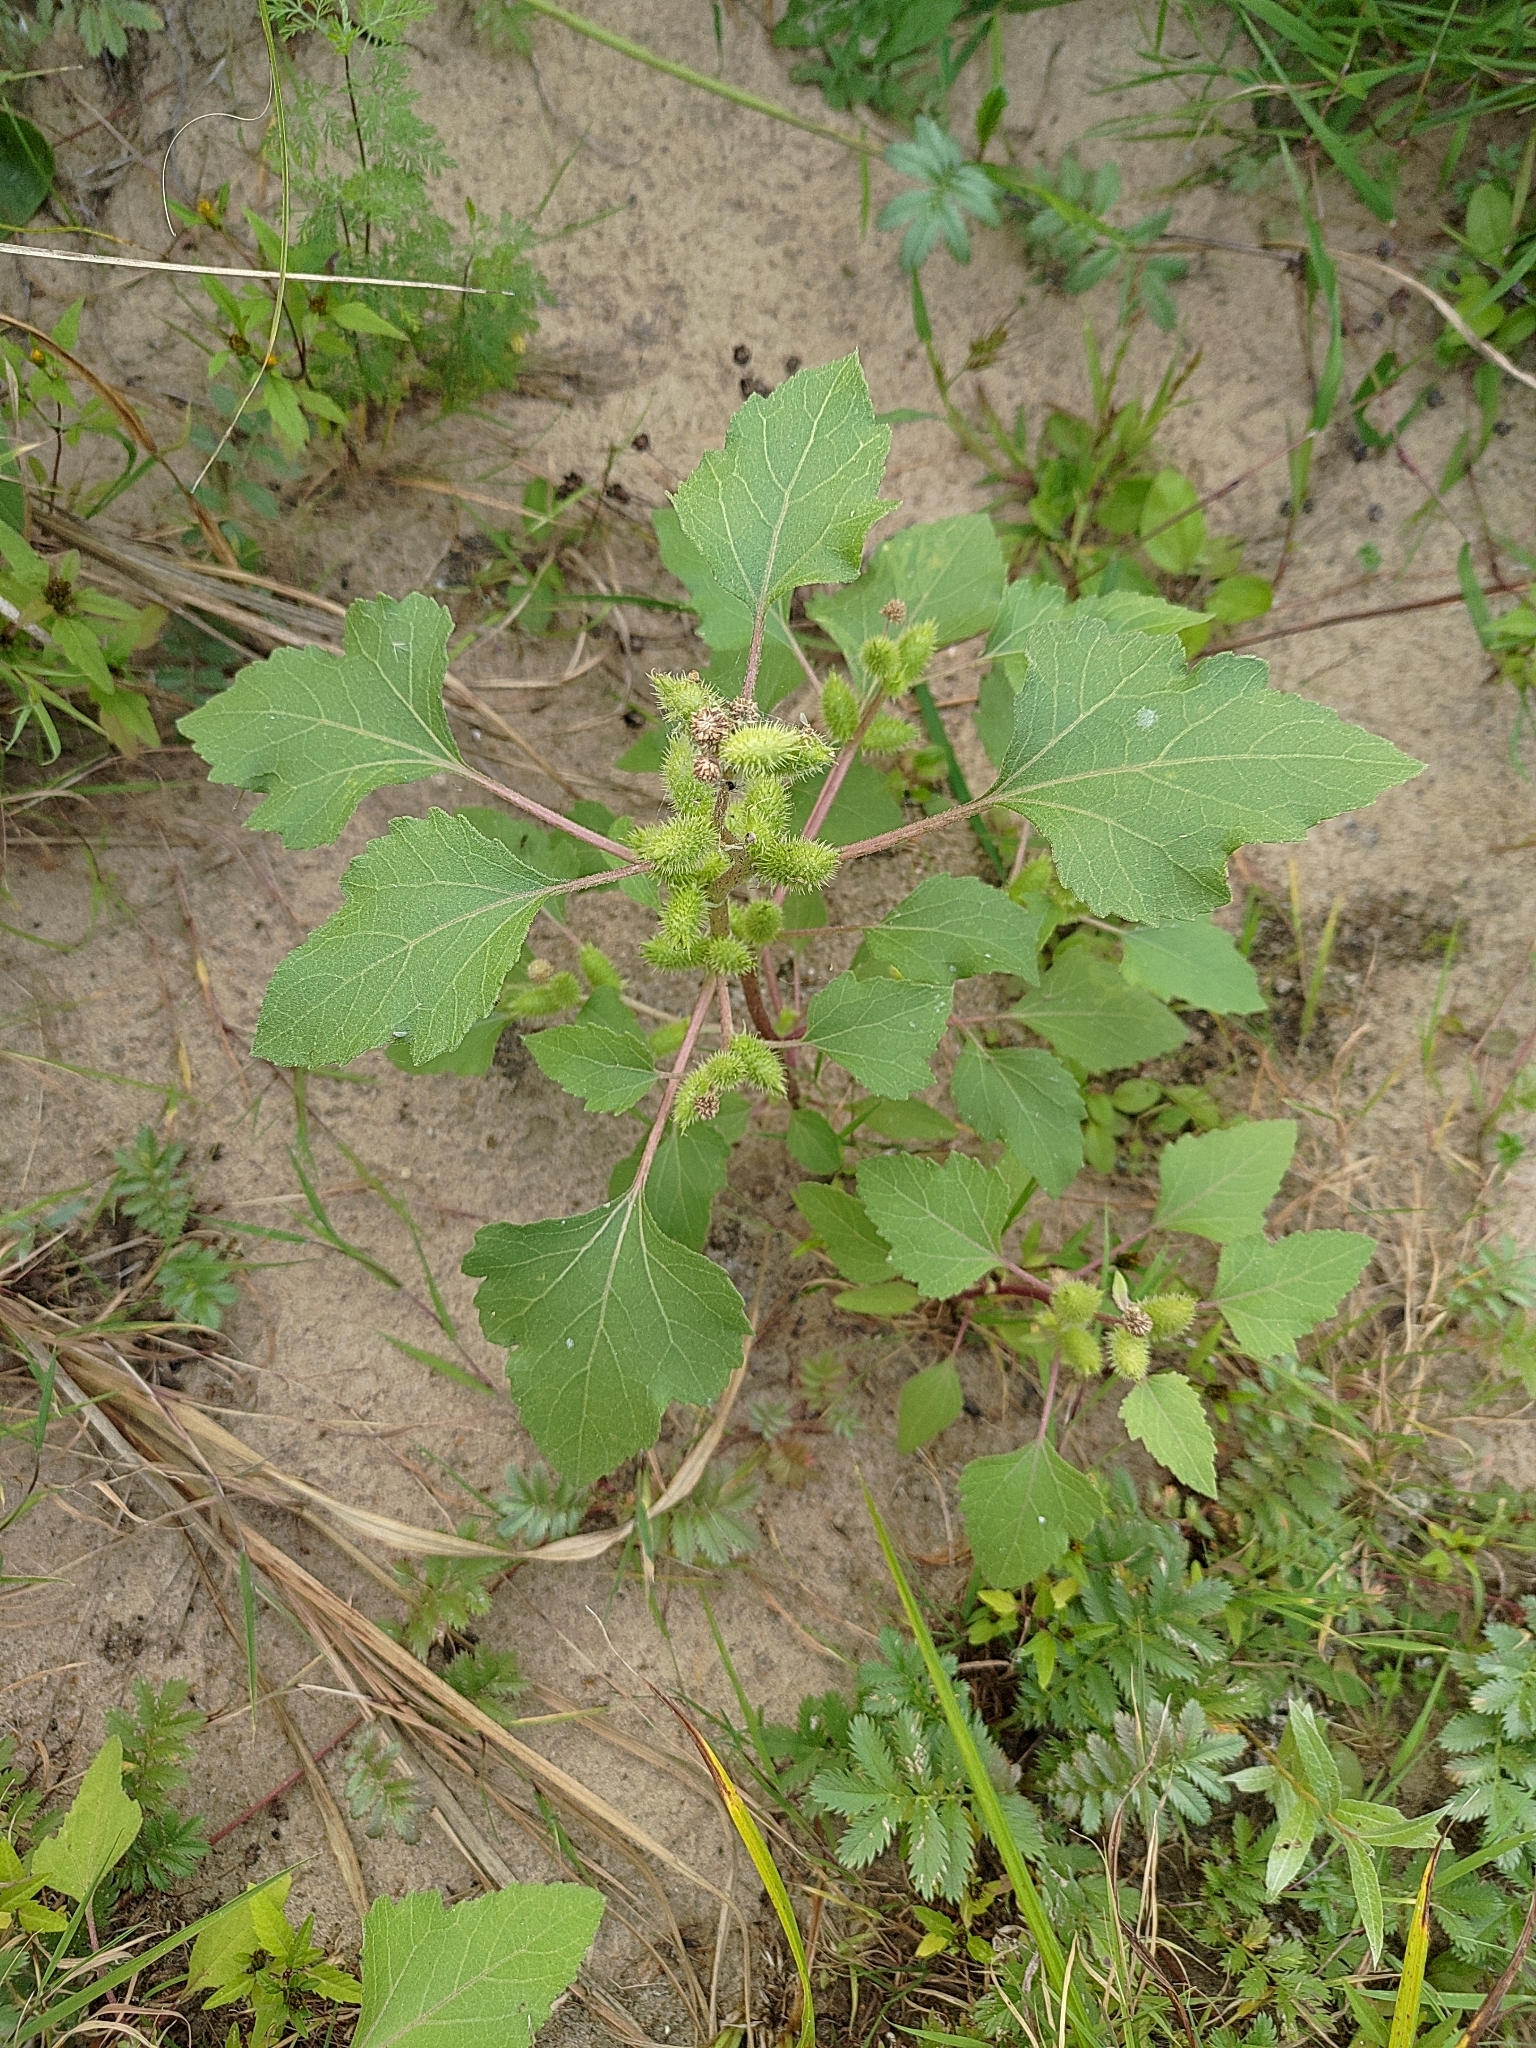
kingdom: Plantae
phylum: Tracheophyta
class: Magnoliopsida
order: Asterales
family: Asteraceae
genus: Xanthium
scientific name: Xanthium orientale
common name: Californian burr
